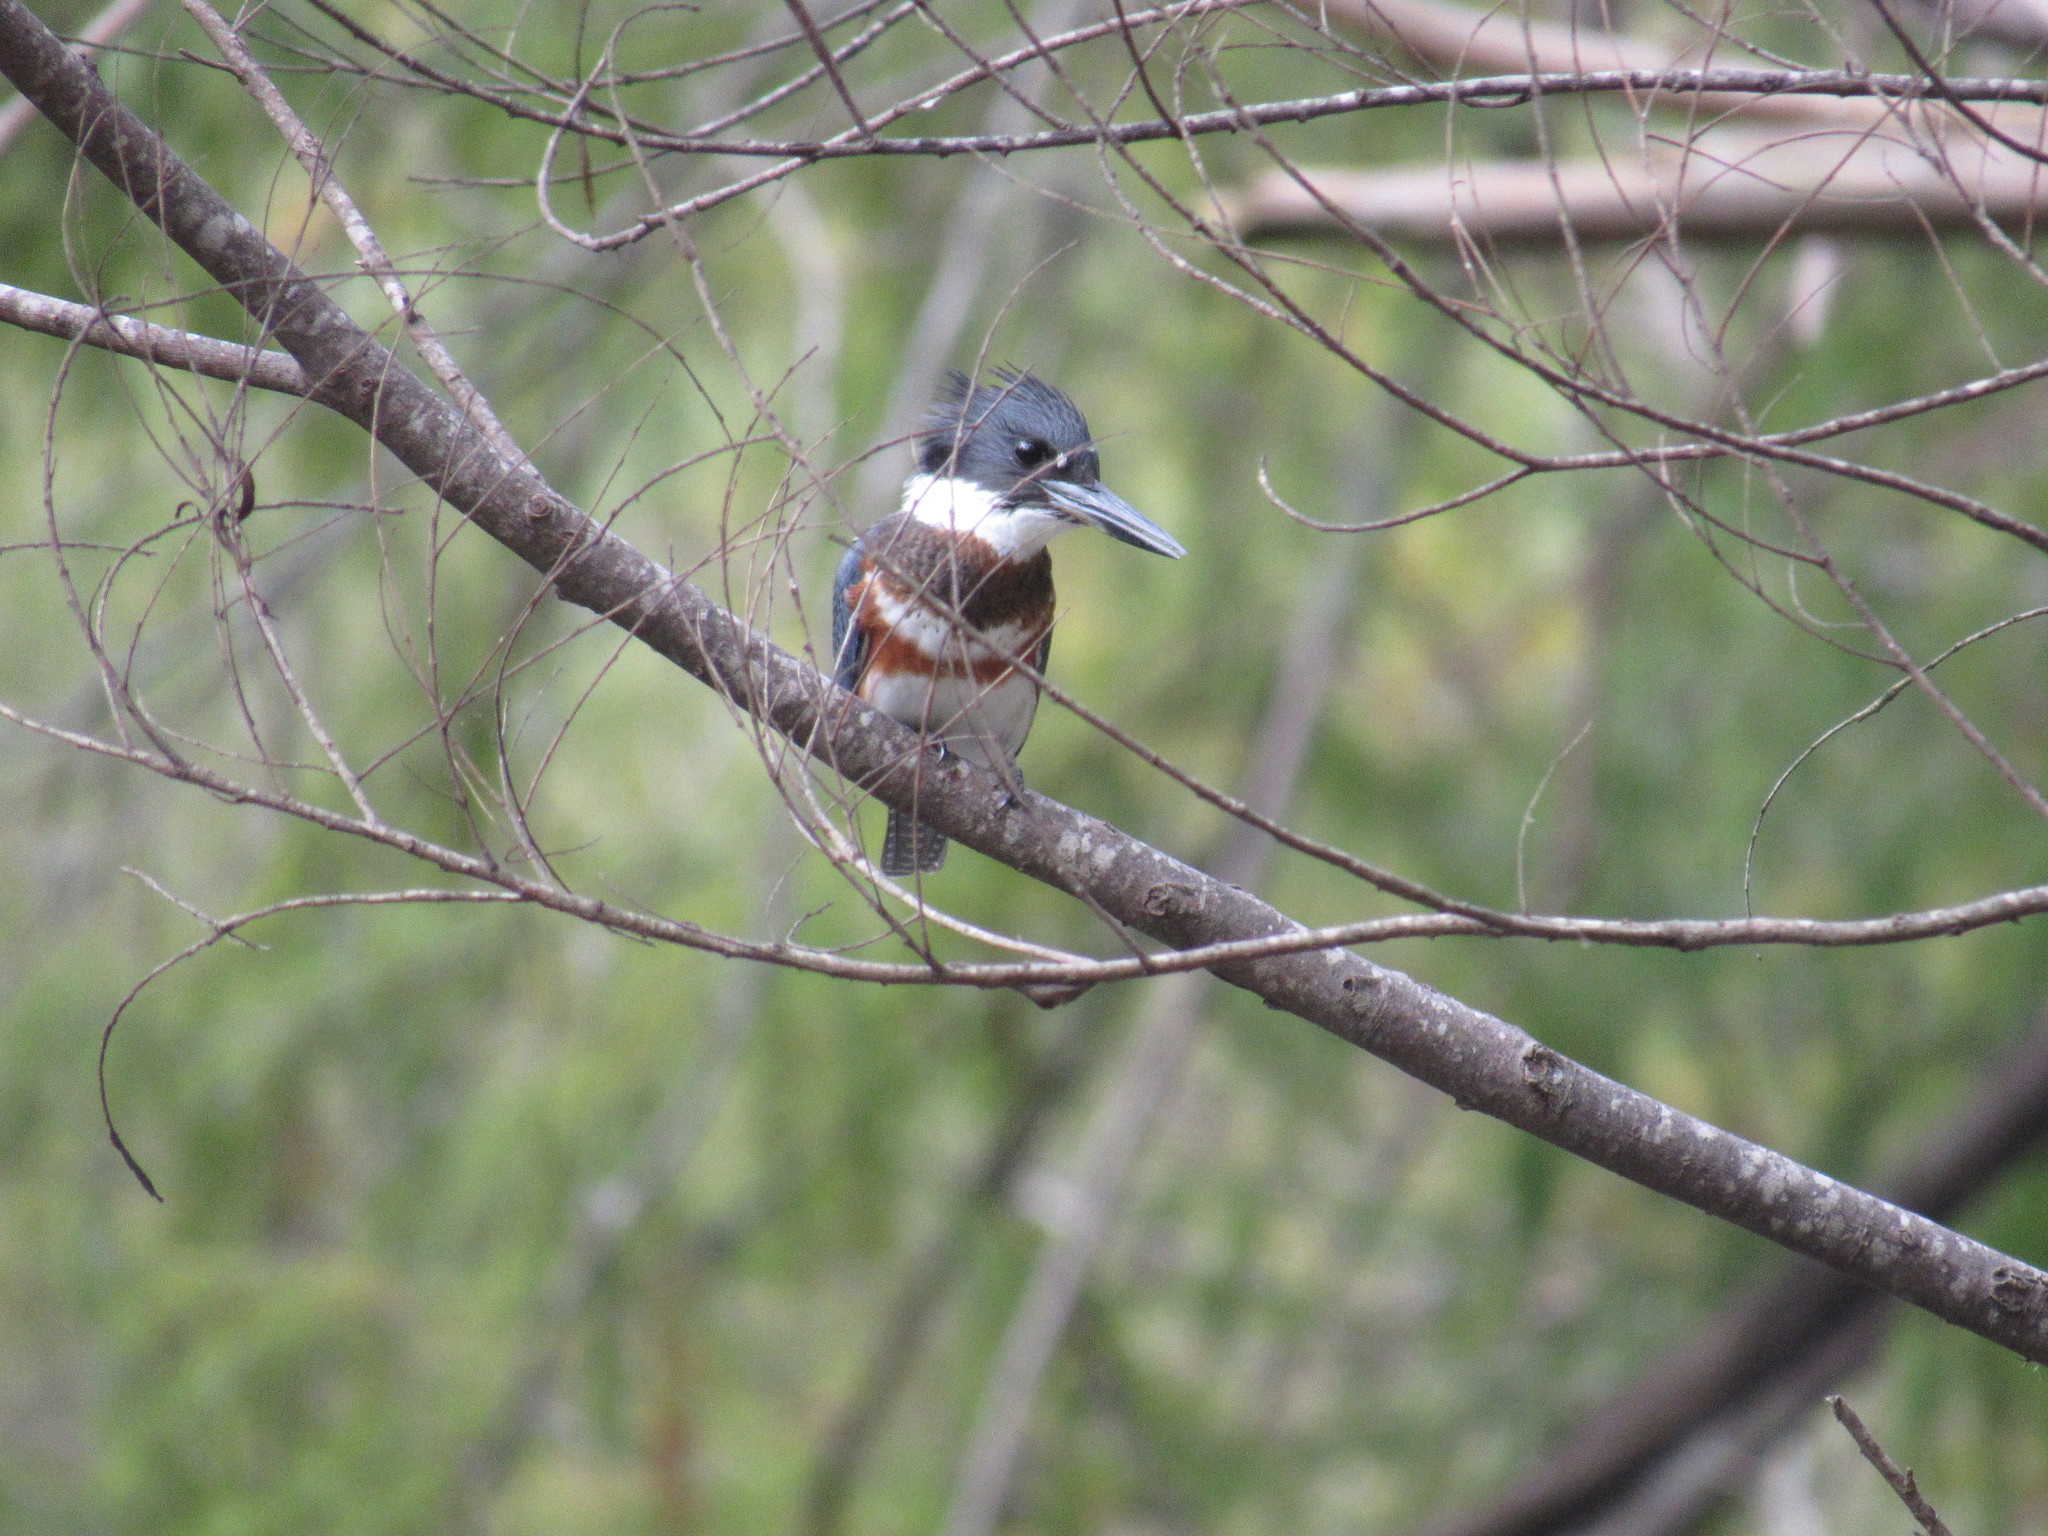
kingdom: Animalia
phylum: Chordata
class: Aves
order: Coraciiformes
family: Alcedinidae
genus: Megaceryle
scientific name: Megaceryle alcyon
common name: Belted kingfisher
